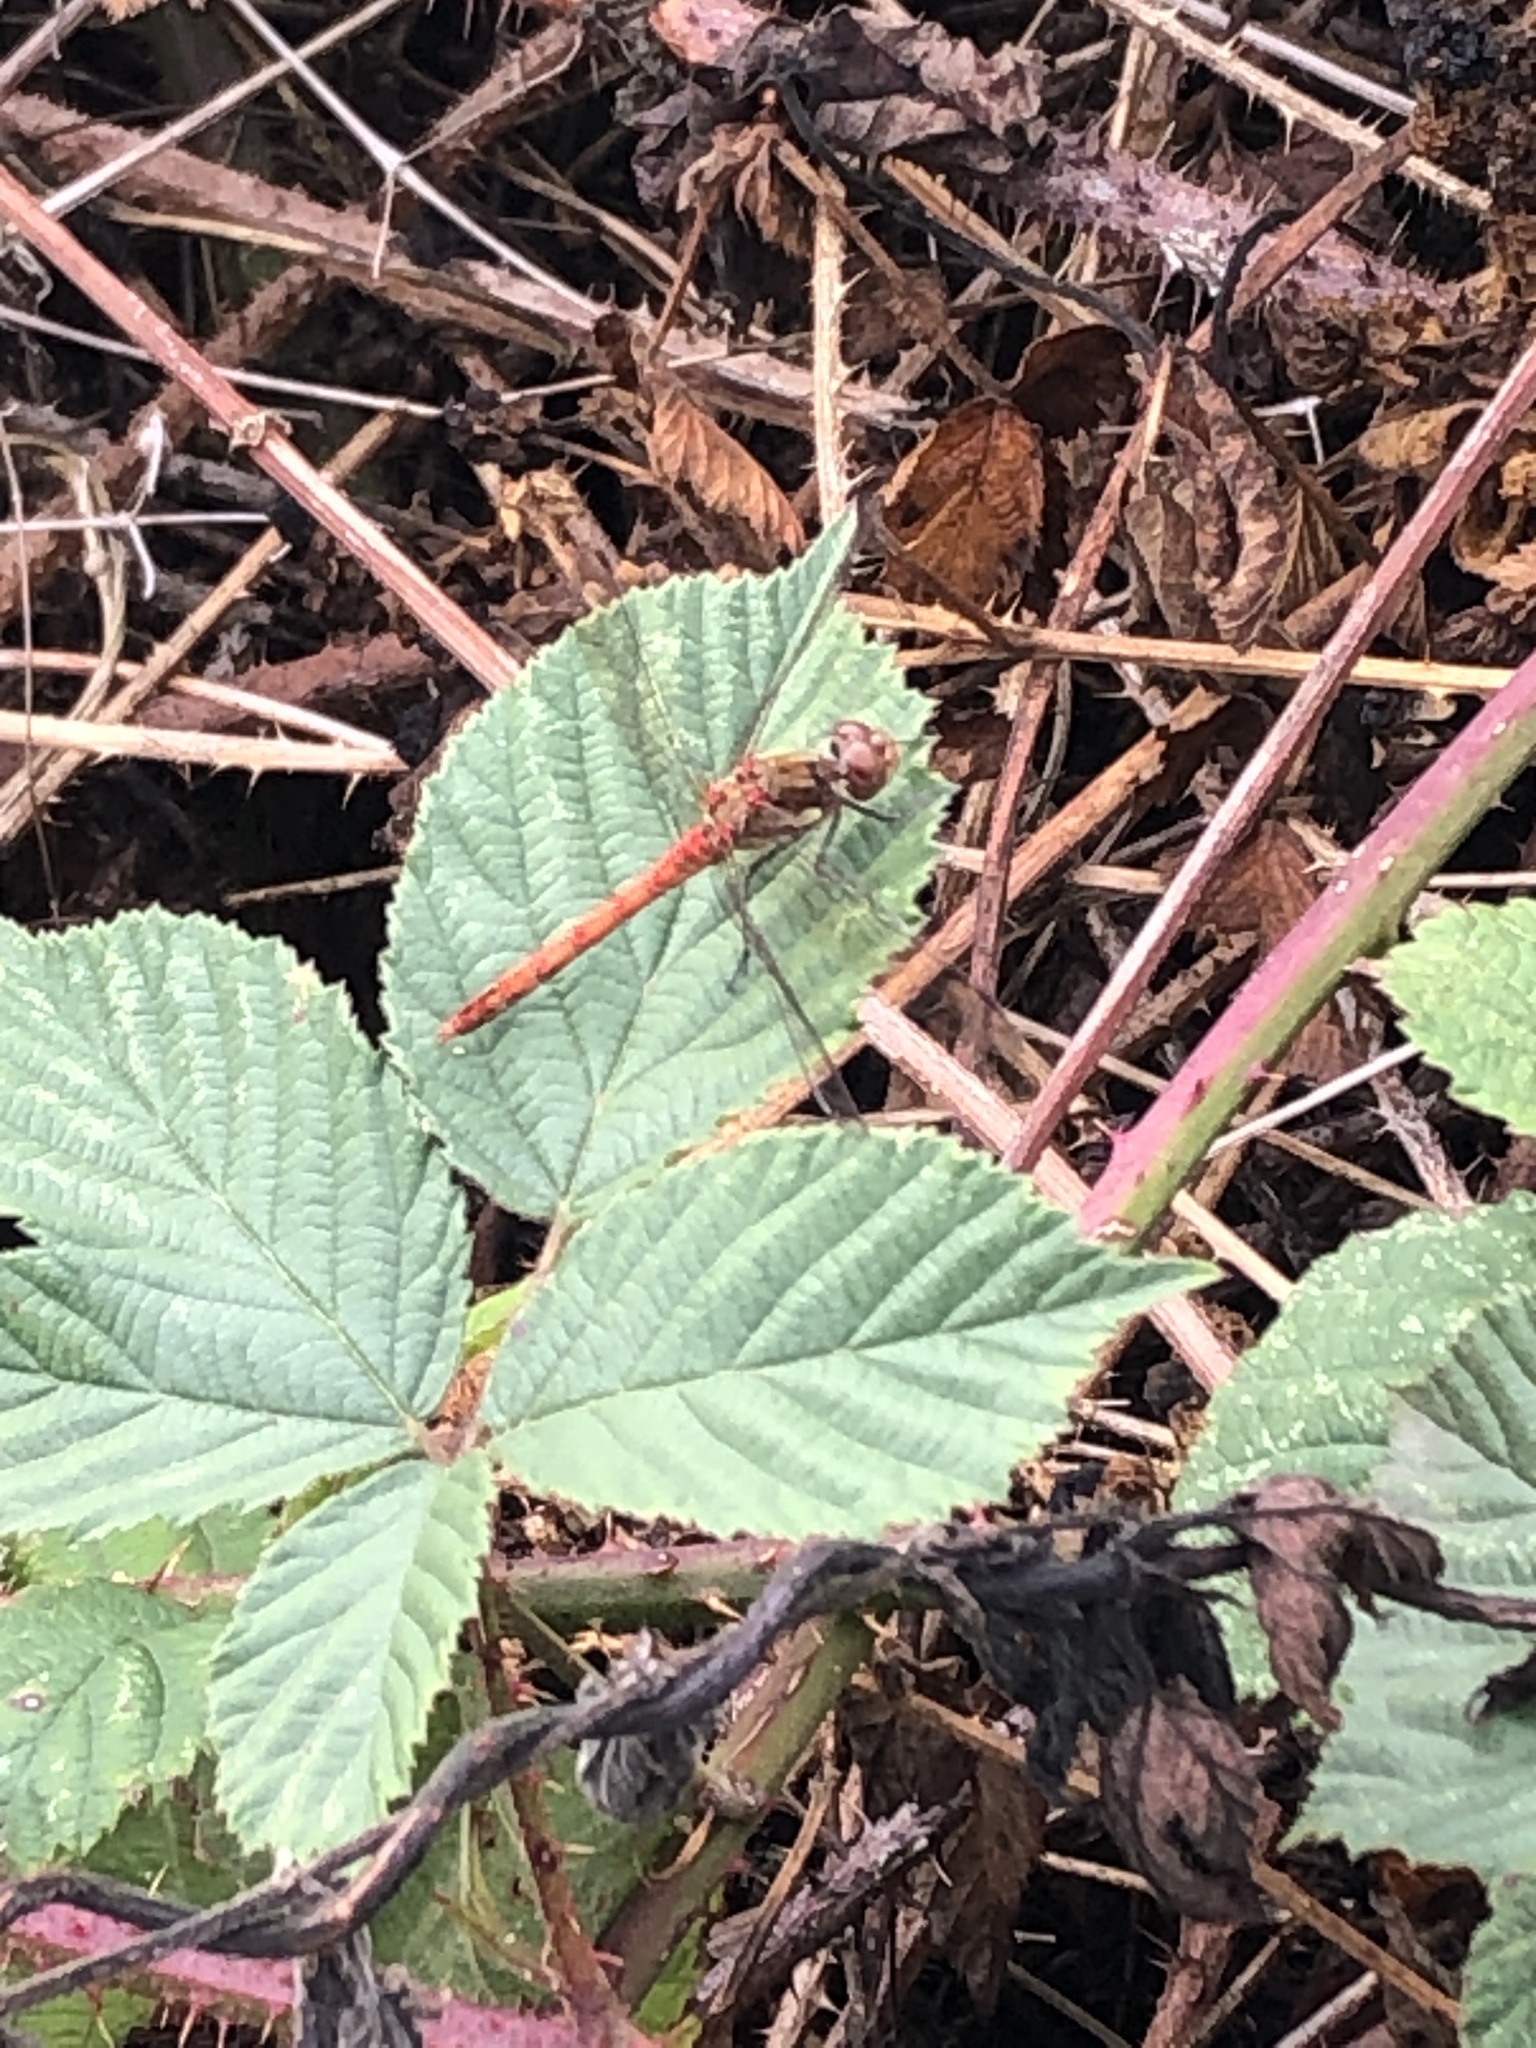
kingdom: Animalia
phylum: Arthropoda
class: Insecta
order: Odonata
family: Libellulidae
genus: Sympetrum
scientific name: Sympetrum striolatum
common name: Common darter
